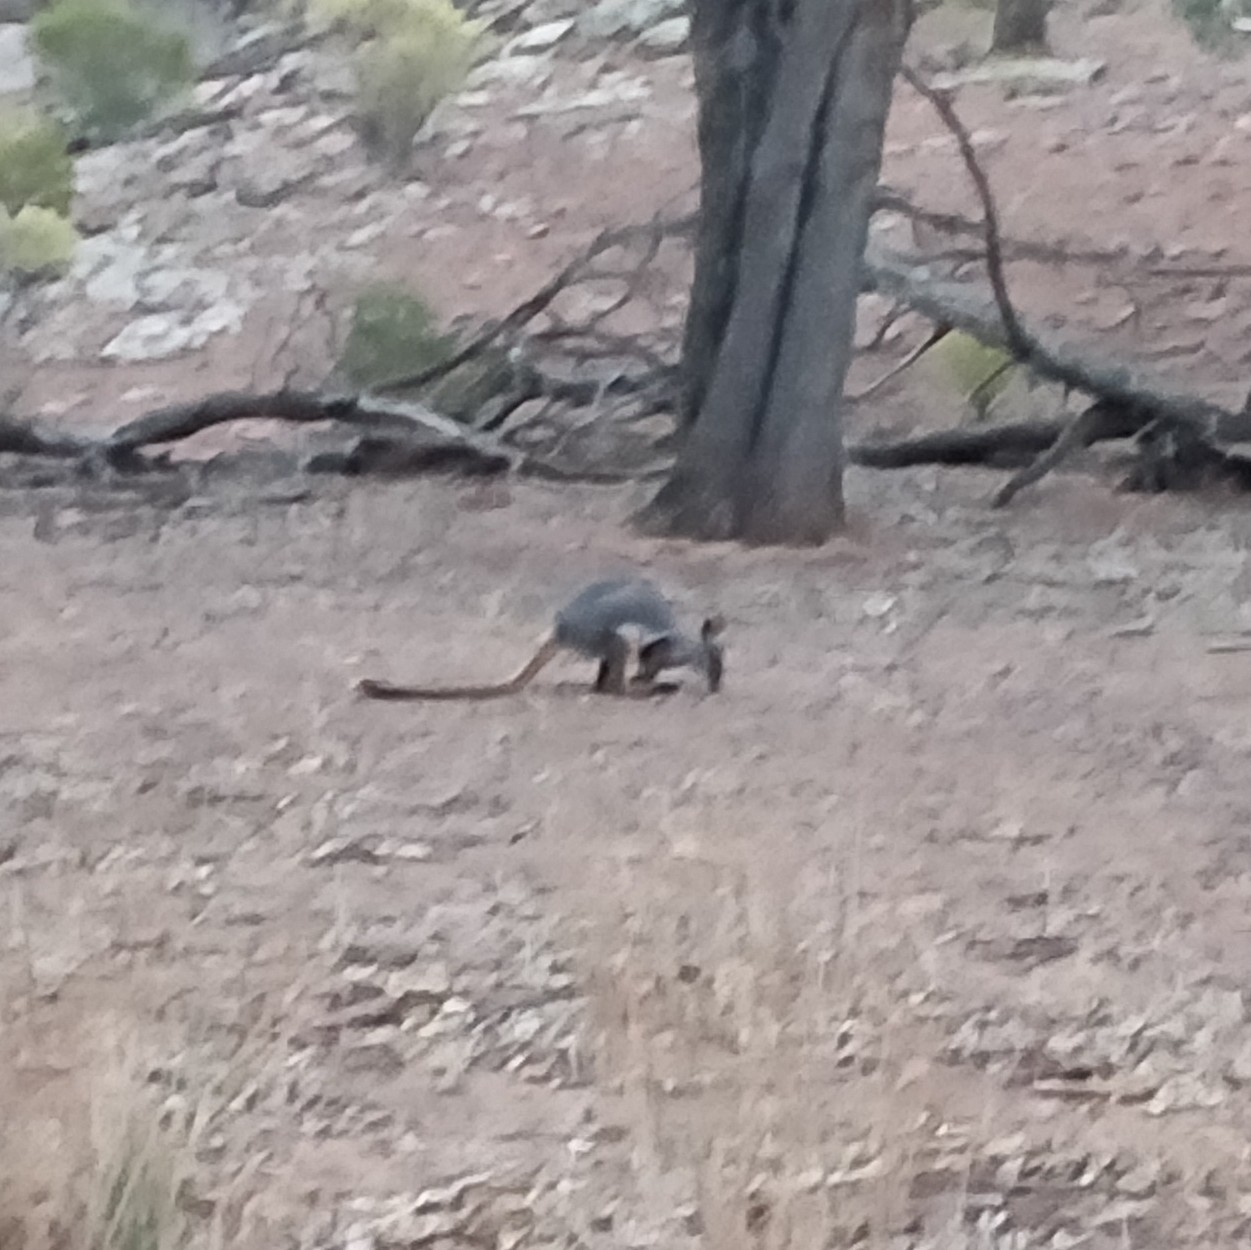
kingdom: Animalia
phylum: Chordata
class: Mammalia
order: Diprotodontia
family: Macropodidae
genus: Petrogale
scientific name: Petrogale xanthopus
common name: Yellow-footed rock-wallaby
